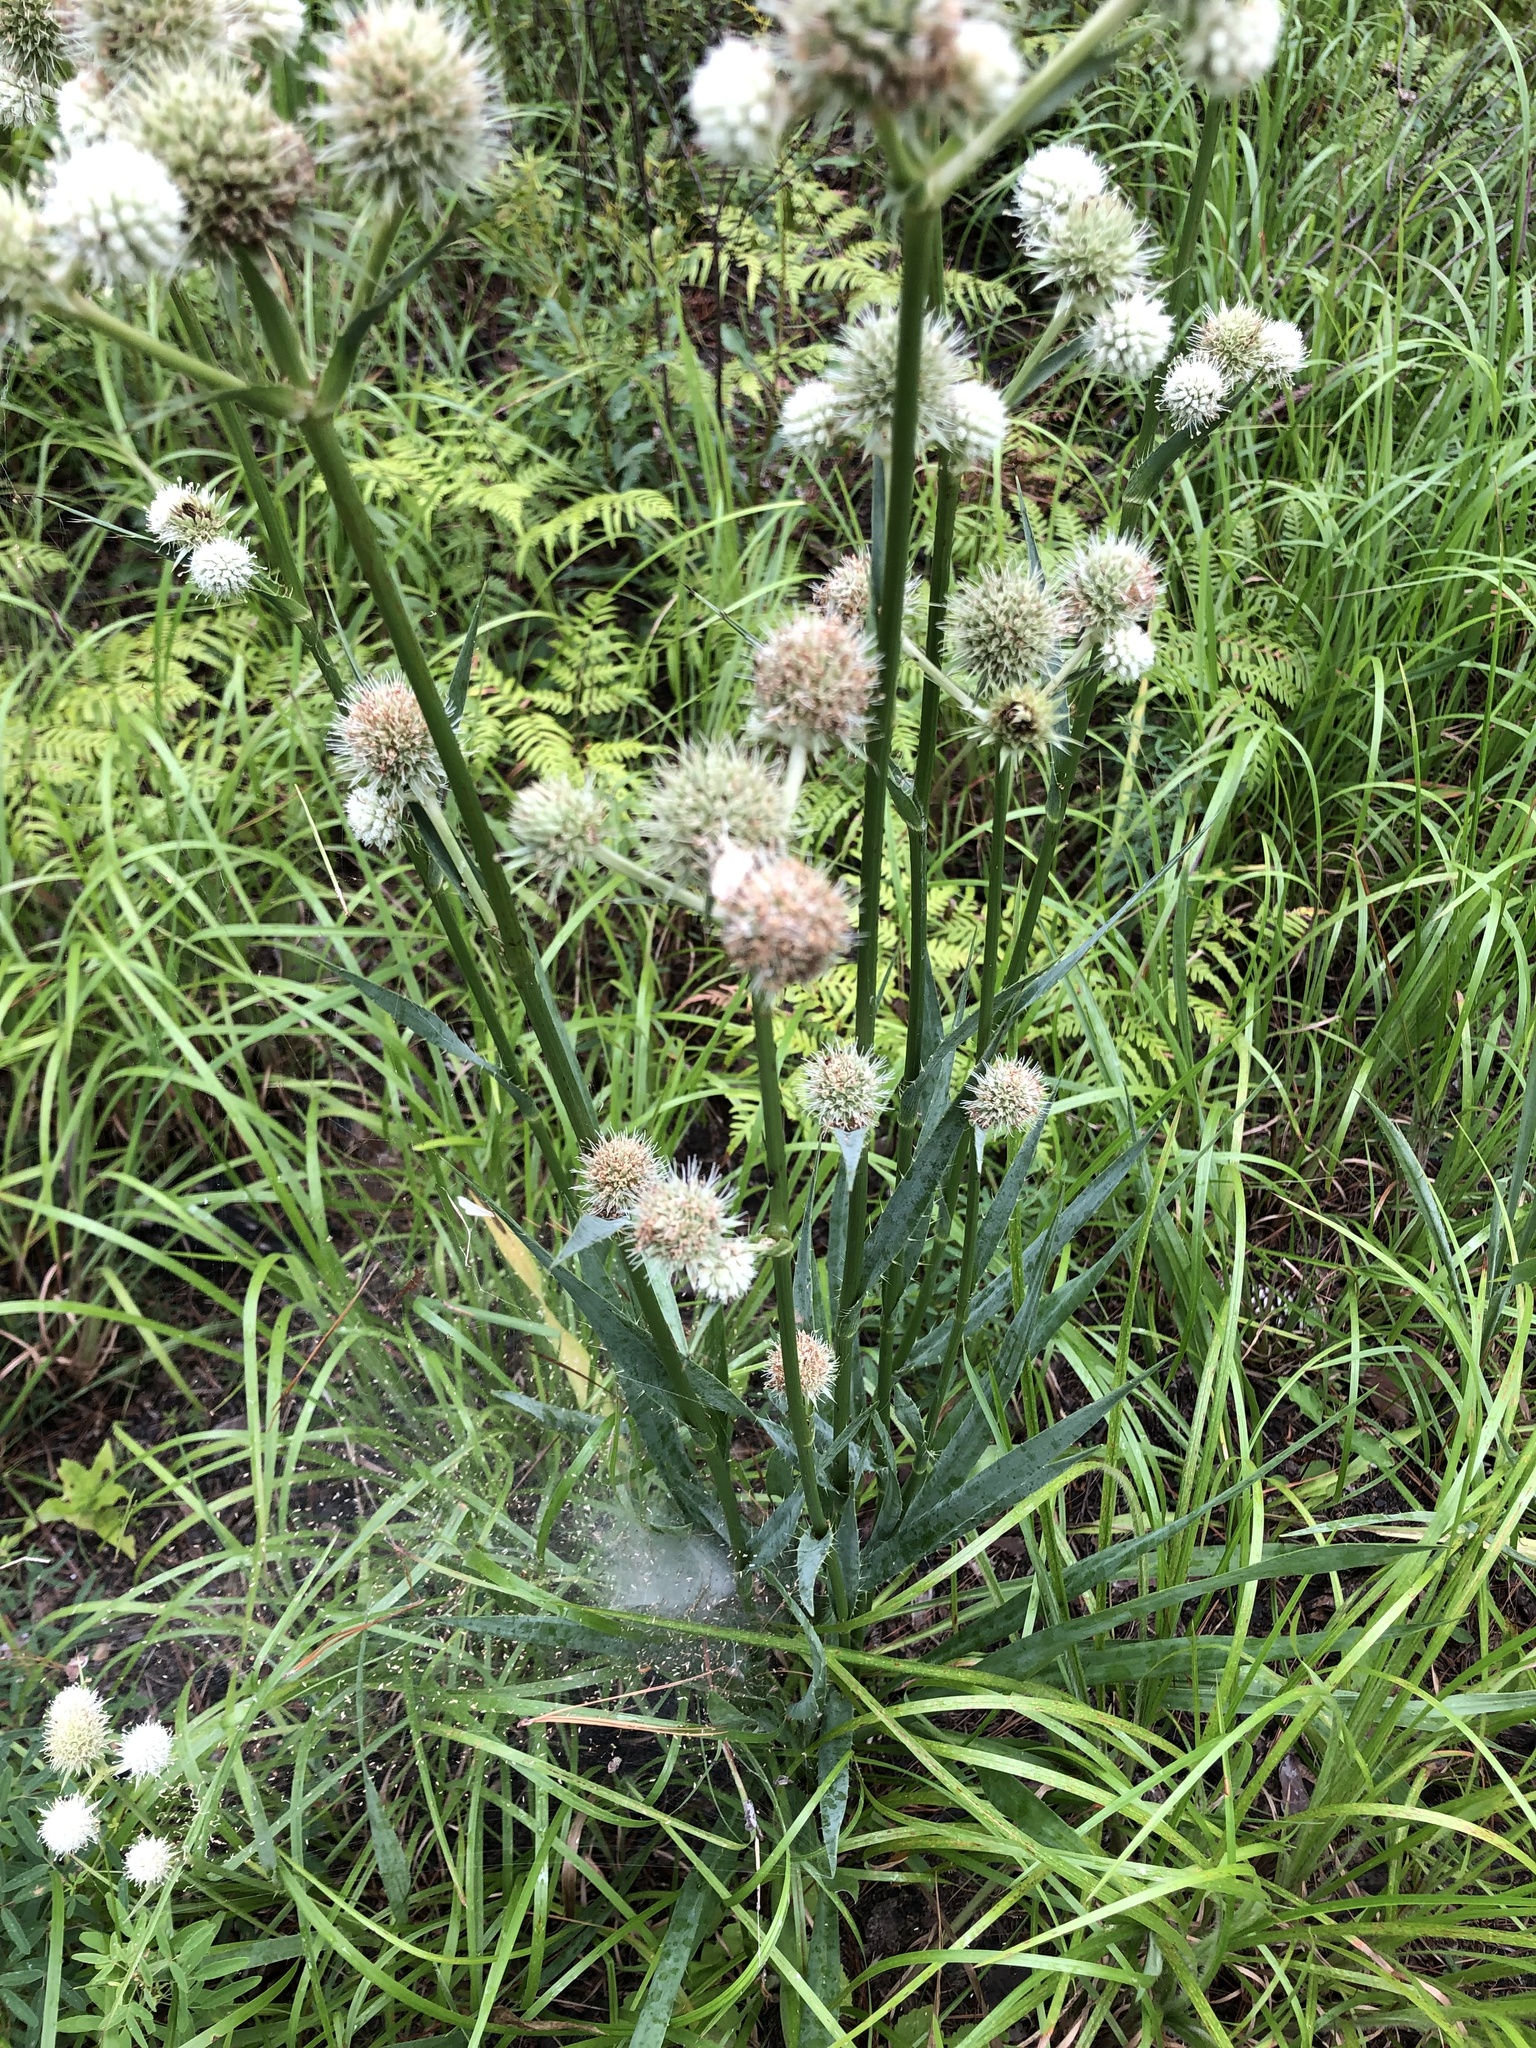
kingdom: Plantae
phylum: Tracheophyta
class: Magnoliopsida
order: Apiales
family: Apiaceae
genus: Eryngium
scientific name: Eryngium yuccifolium
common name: Button eryngo
